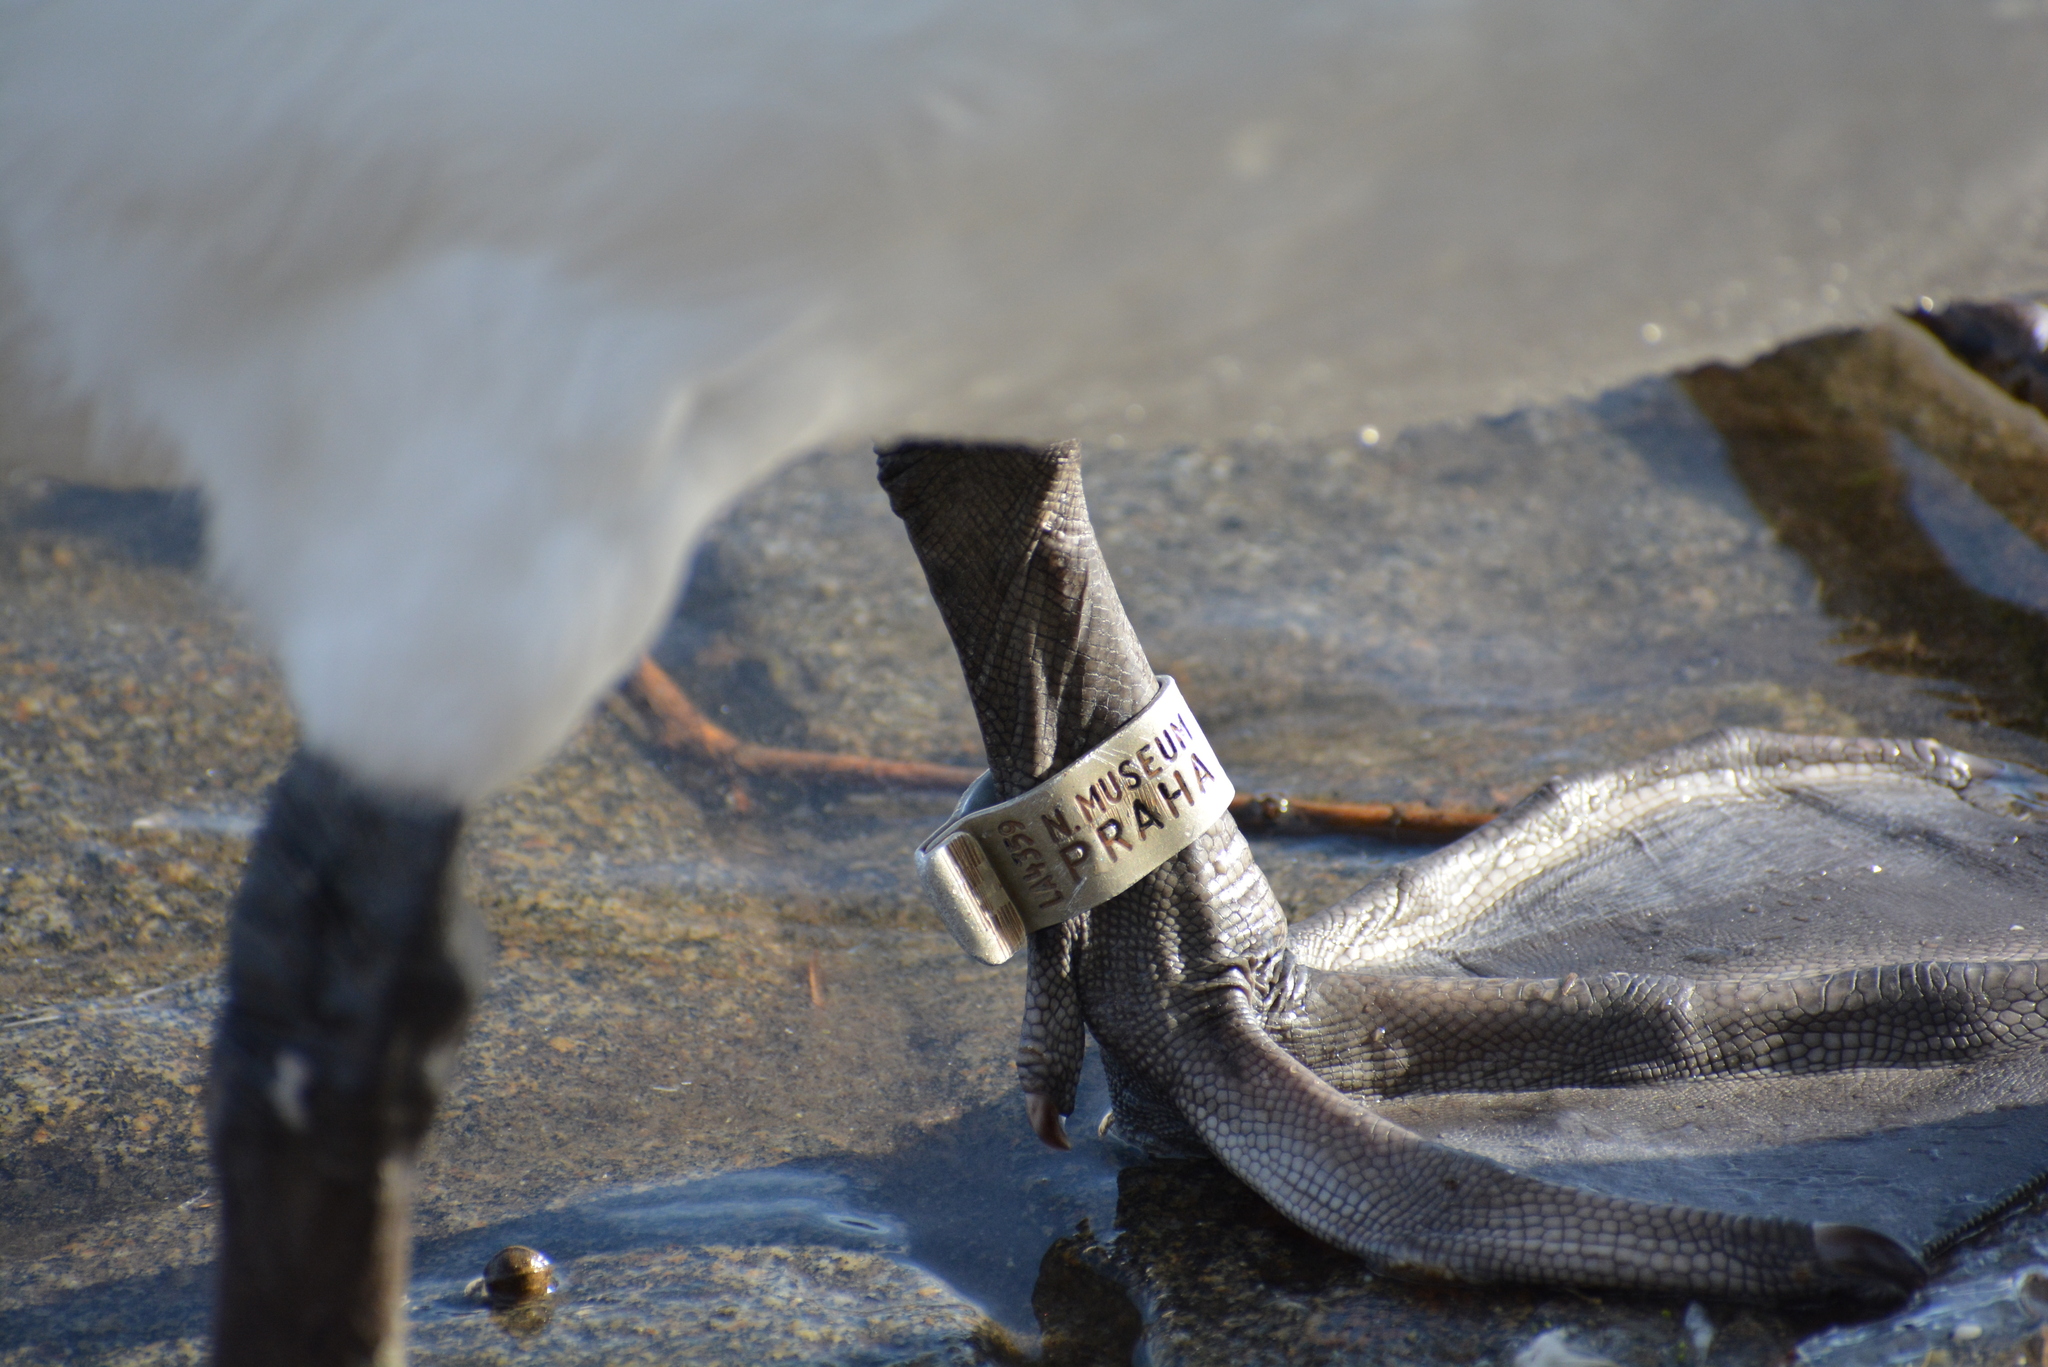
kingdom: Animalia
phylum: Chordata
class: Aves
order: Anseriformes
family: Anatidae
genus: Cygnus
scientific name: Cygnus olor
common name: Mute swan
